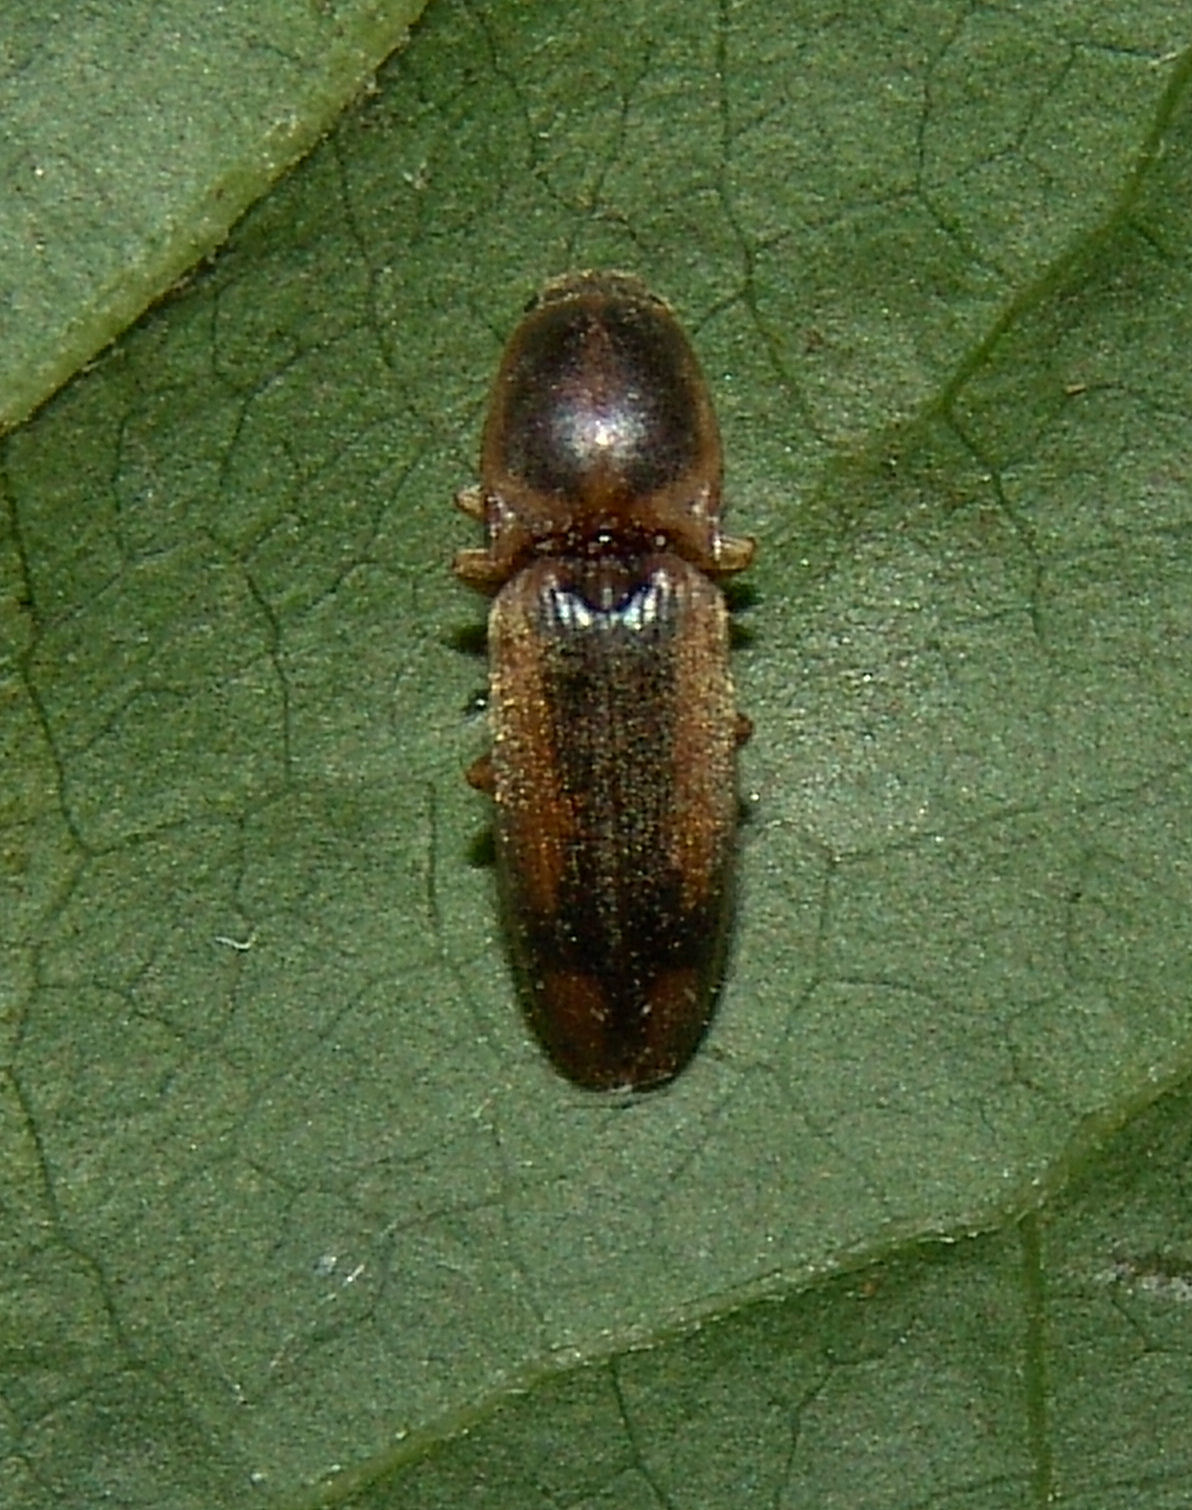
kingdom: Animalia
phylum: Arthropoda
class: Insecta
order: Coleoptera
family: Elateridae
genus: Monocrepidius
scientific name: Monocrepidius
